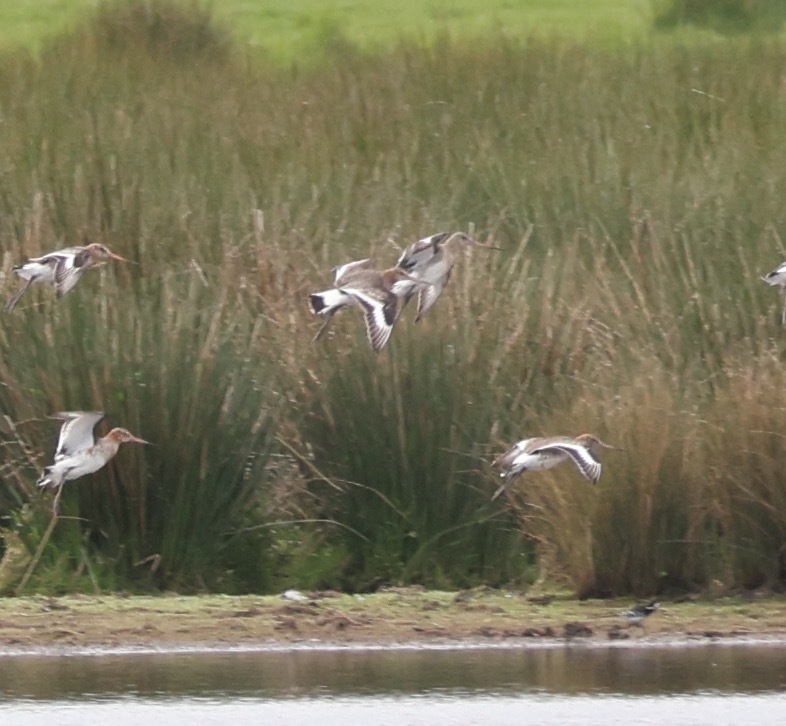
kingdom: Animalia
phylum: Chordata
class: Aves
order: Charadriiformes
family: Scolopacidae
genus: Limosa
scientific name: Limosa limosa
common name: Black-tailed godwit
